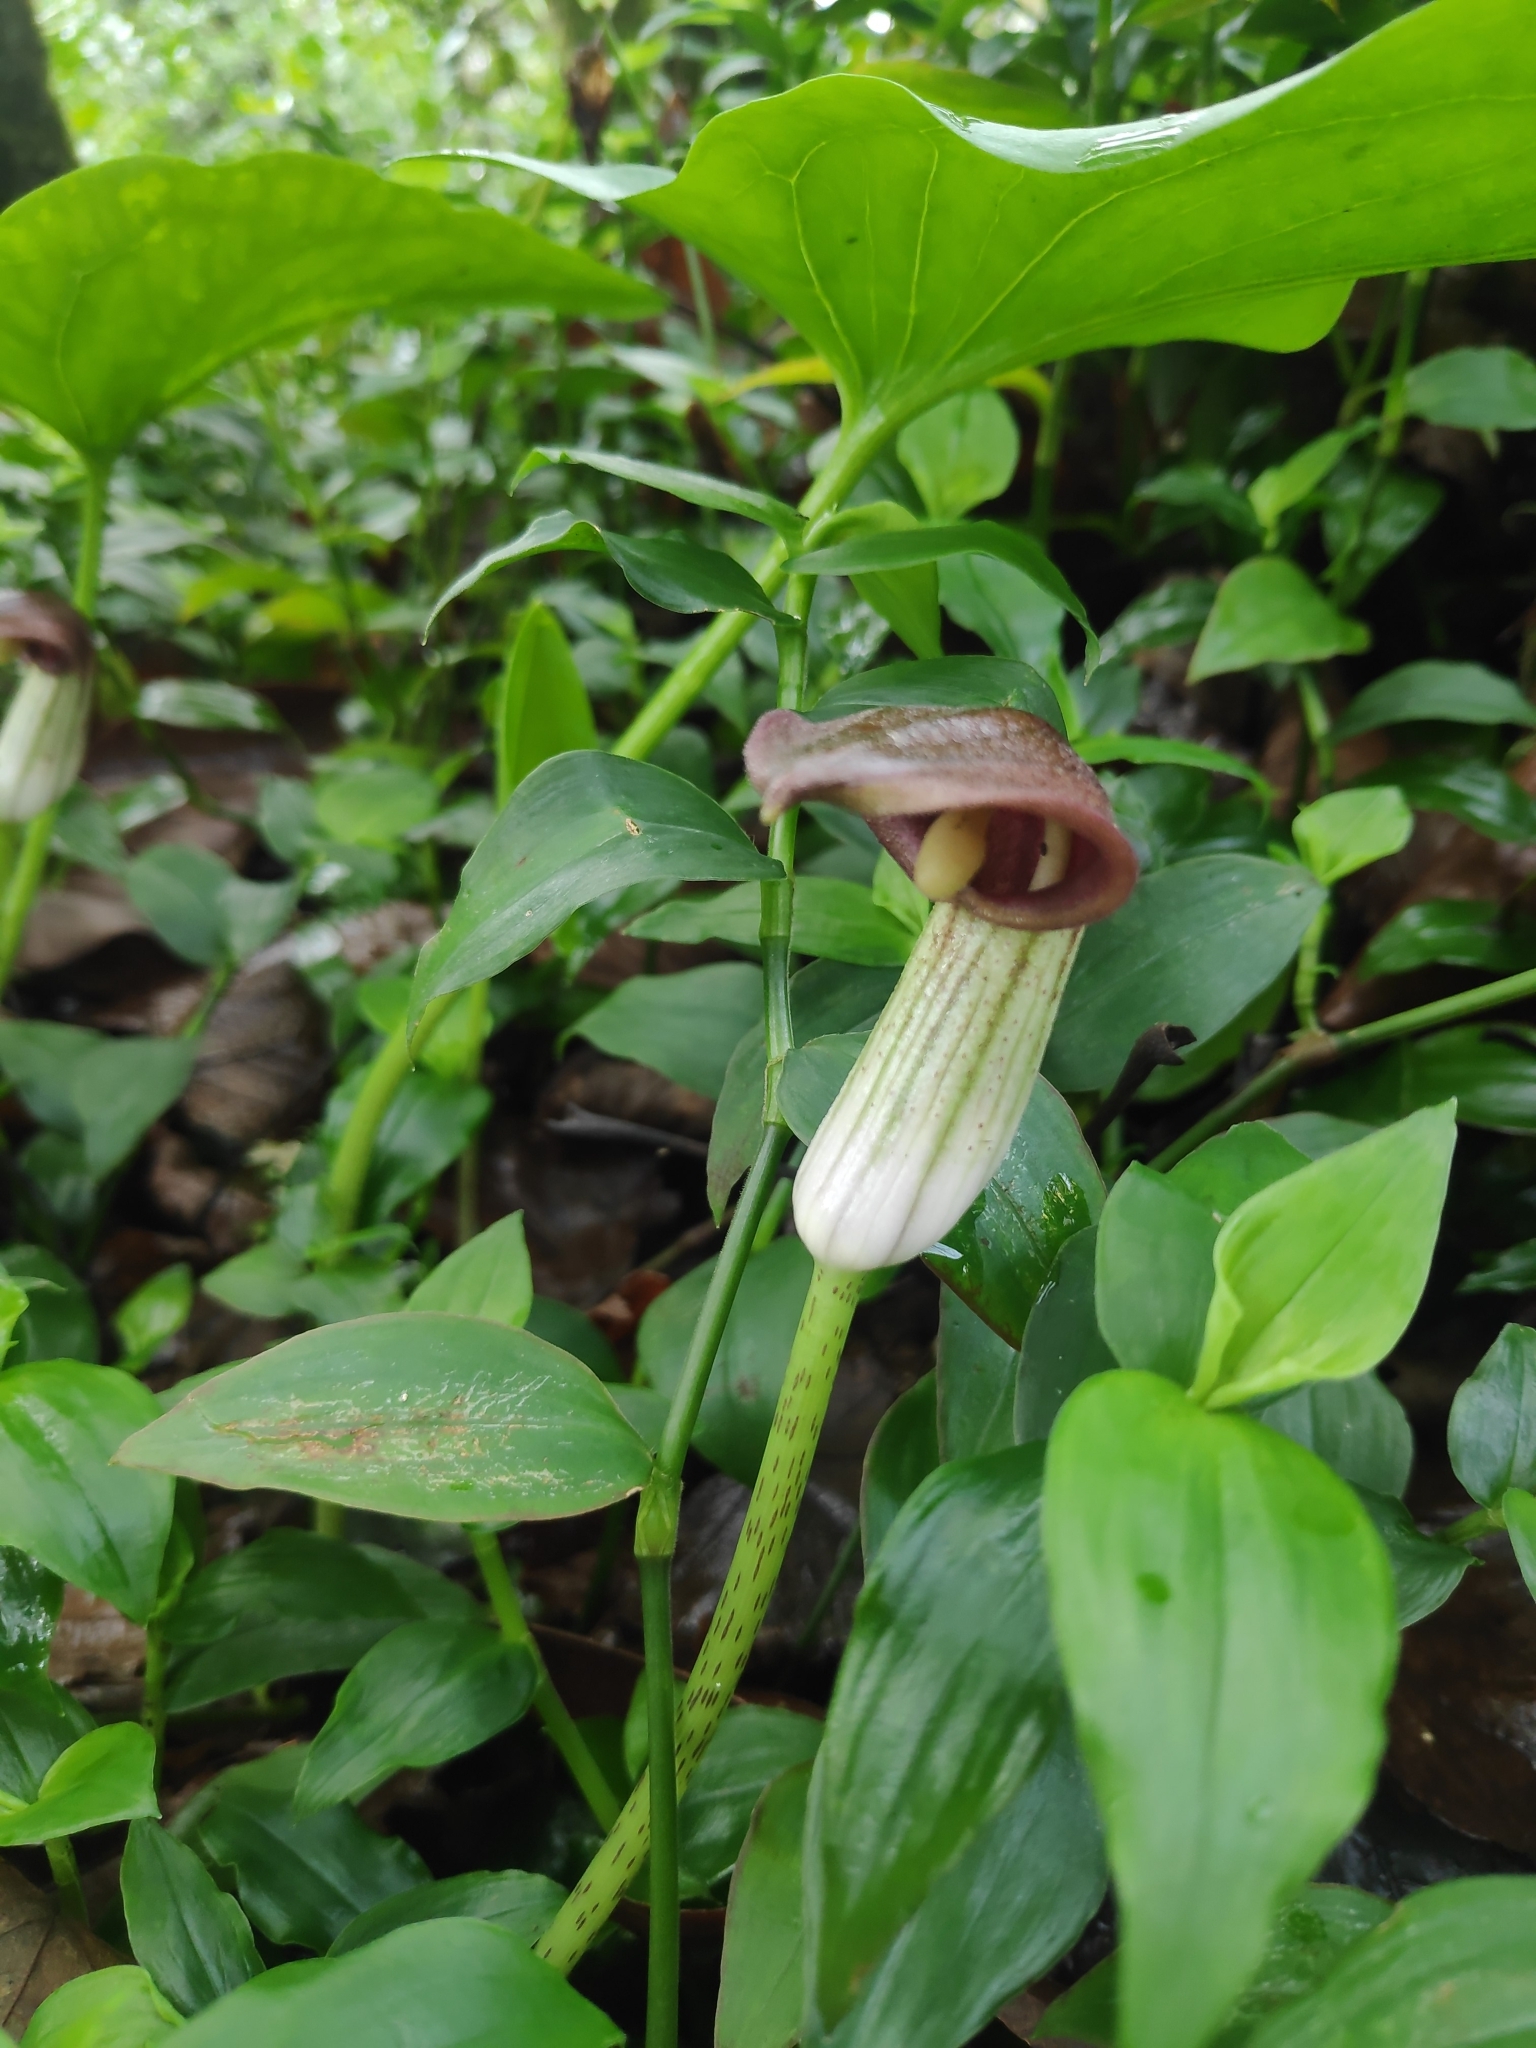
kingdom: Plantae
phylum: Tracheophyta
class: Liliopsida
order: Alismatales
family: Araceae
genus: Arisarum
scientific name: Arisarum simorrhinum
